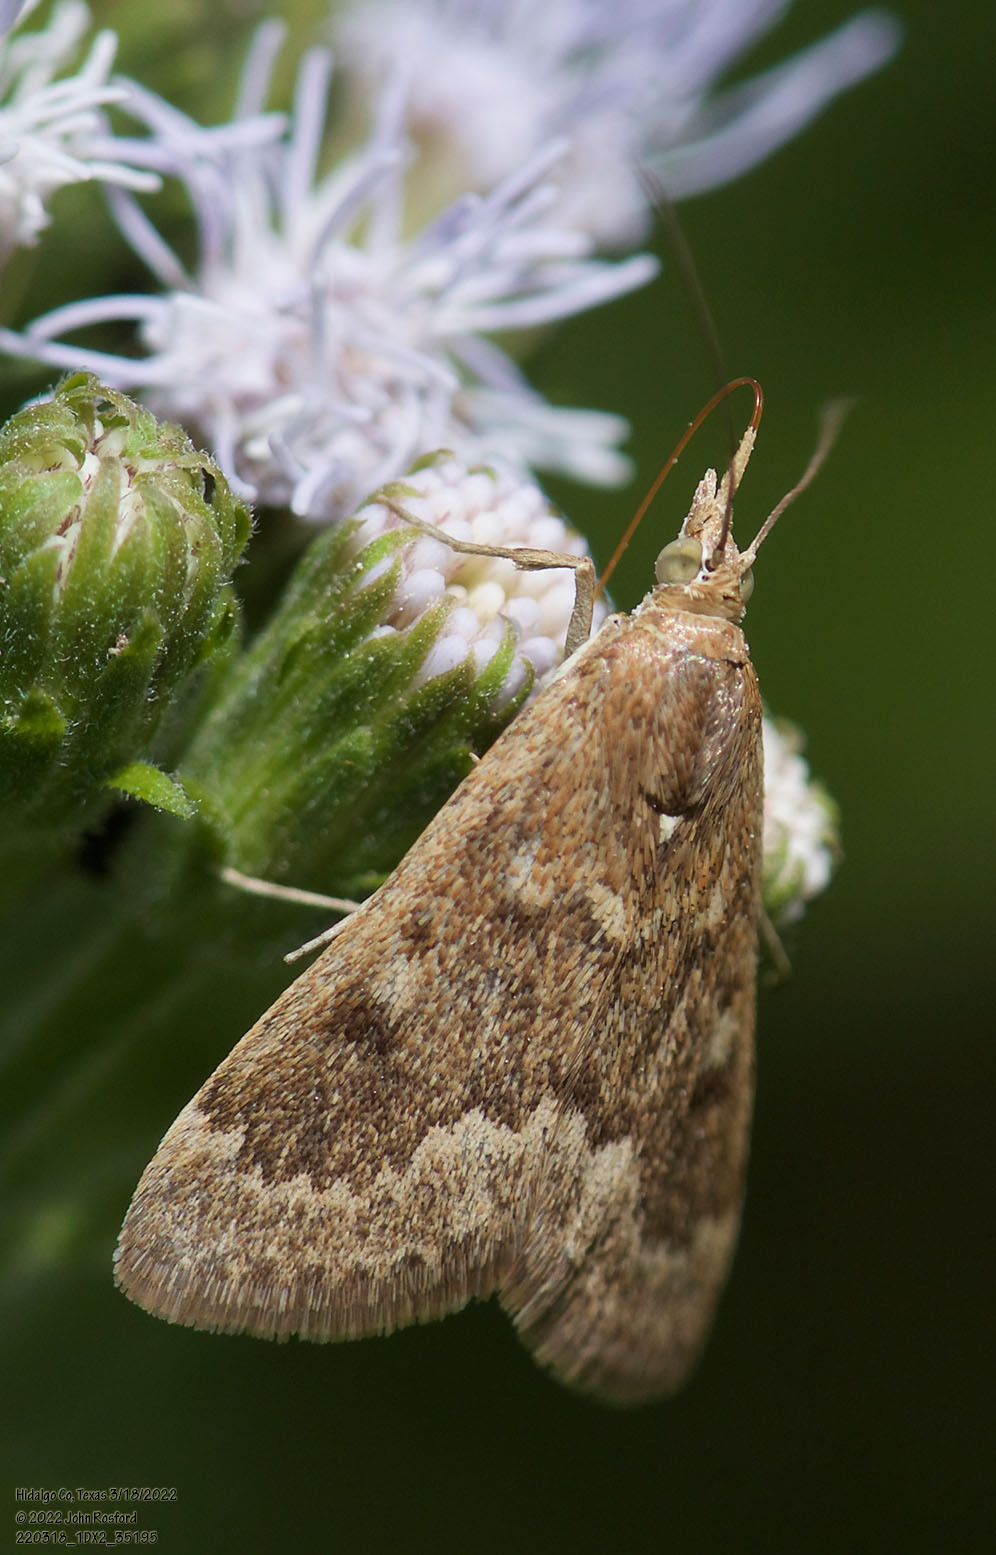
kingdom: Animalia
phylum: Arthropoda
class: Insecta
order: Lepidoptera
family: Crambidae
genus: Achyra
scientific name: Achyra rantalis
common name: Garden webworm
